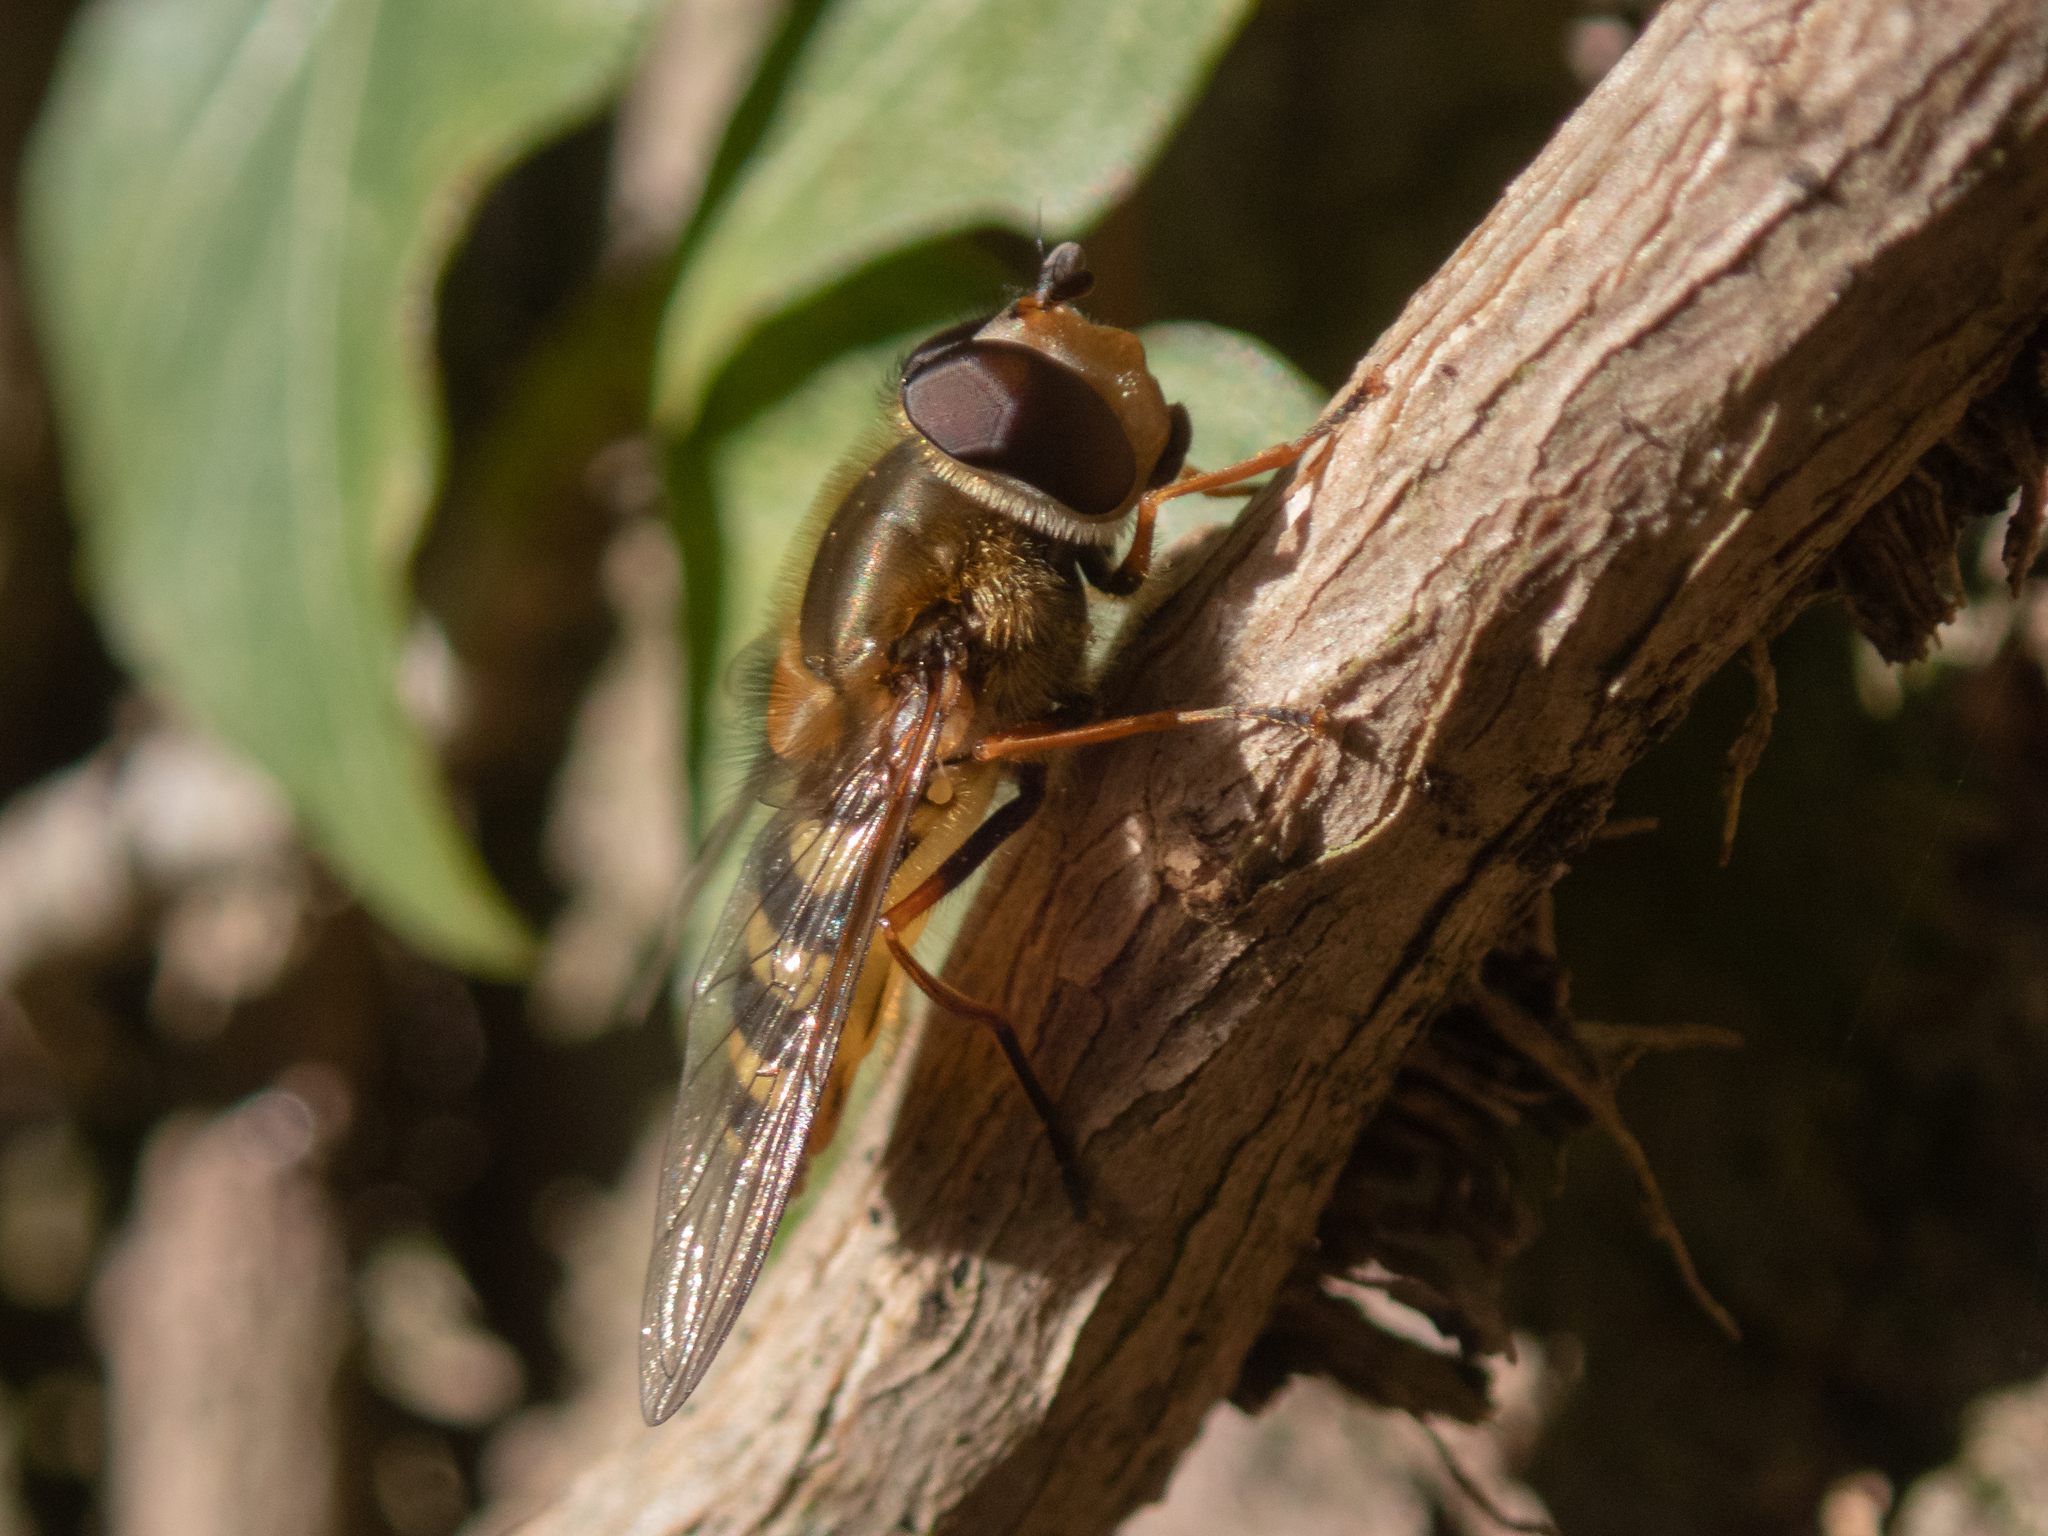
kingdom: Animalia
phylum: Arthropoda
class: Insecta
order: Diptera
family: Syrphidae
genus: Syrphus
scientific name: Syrphus
